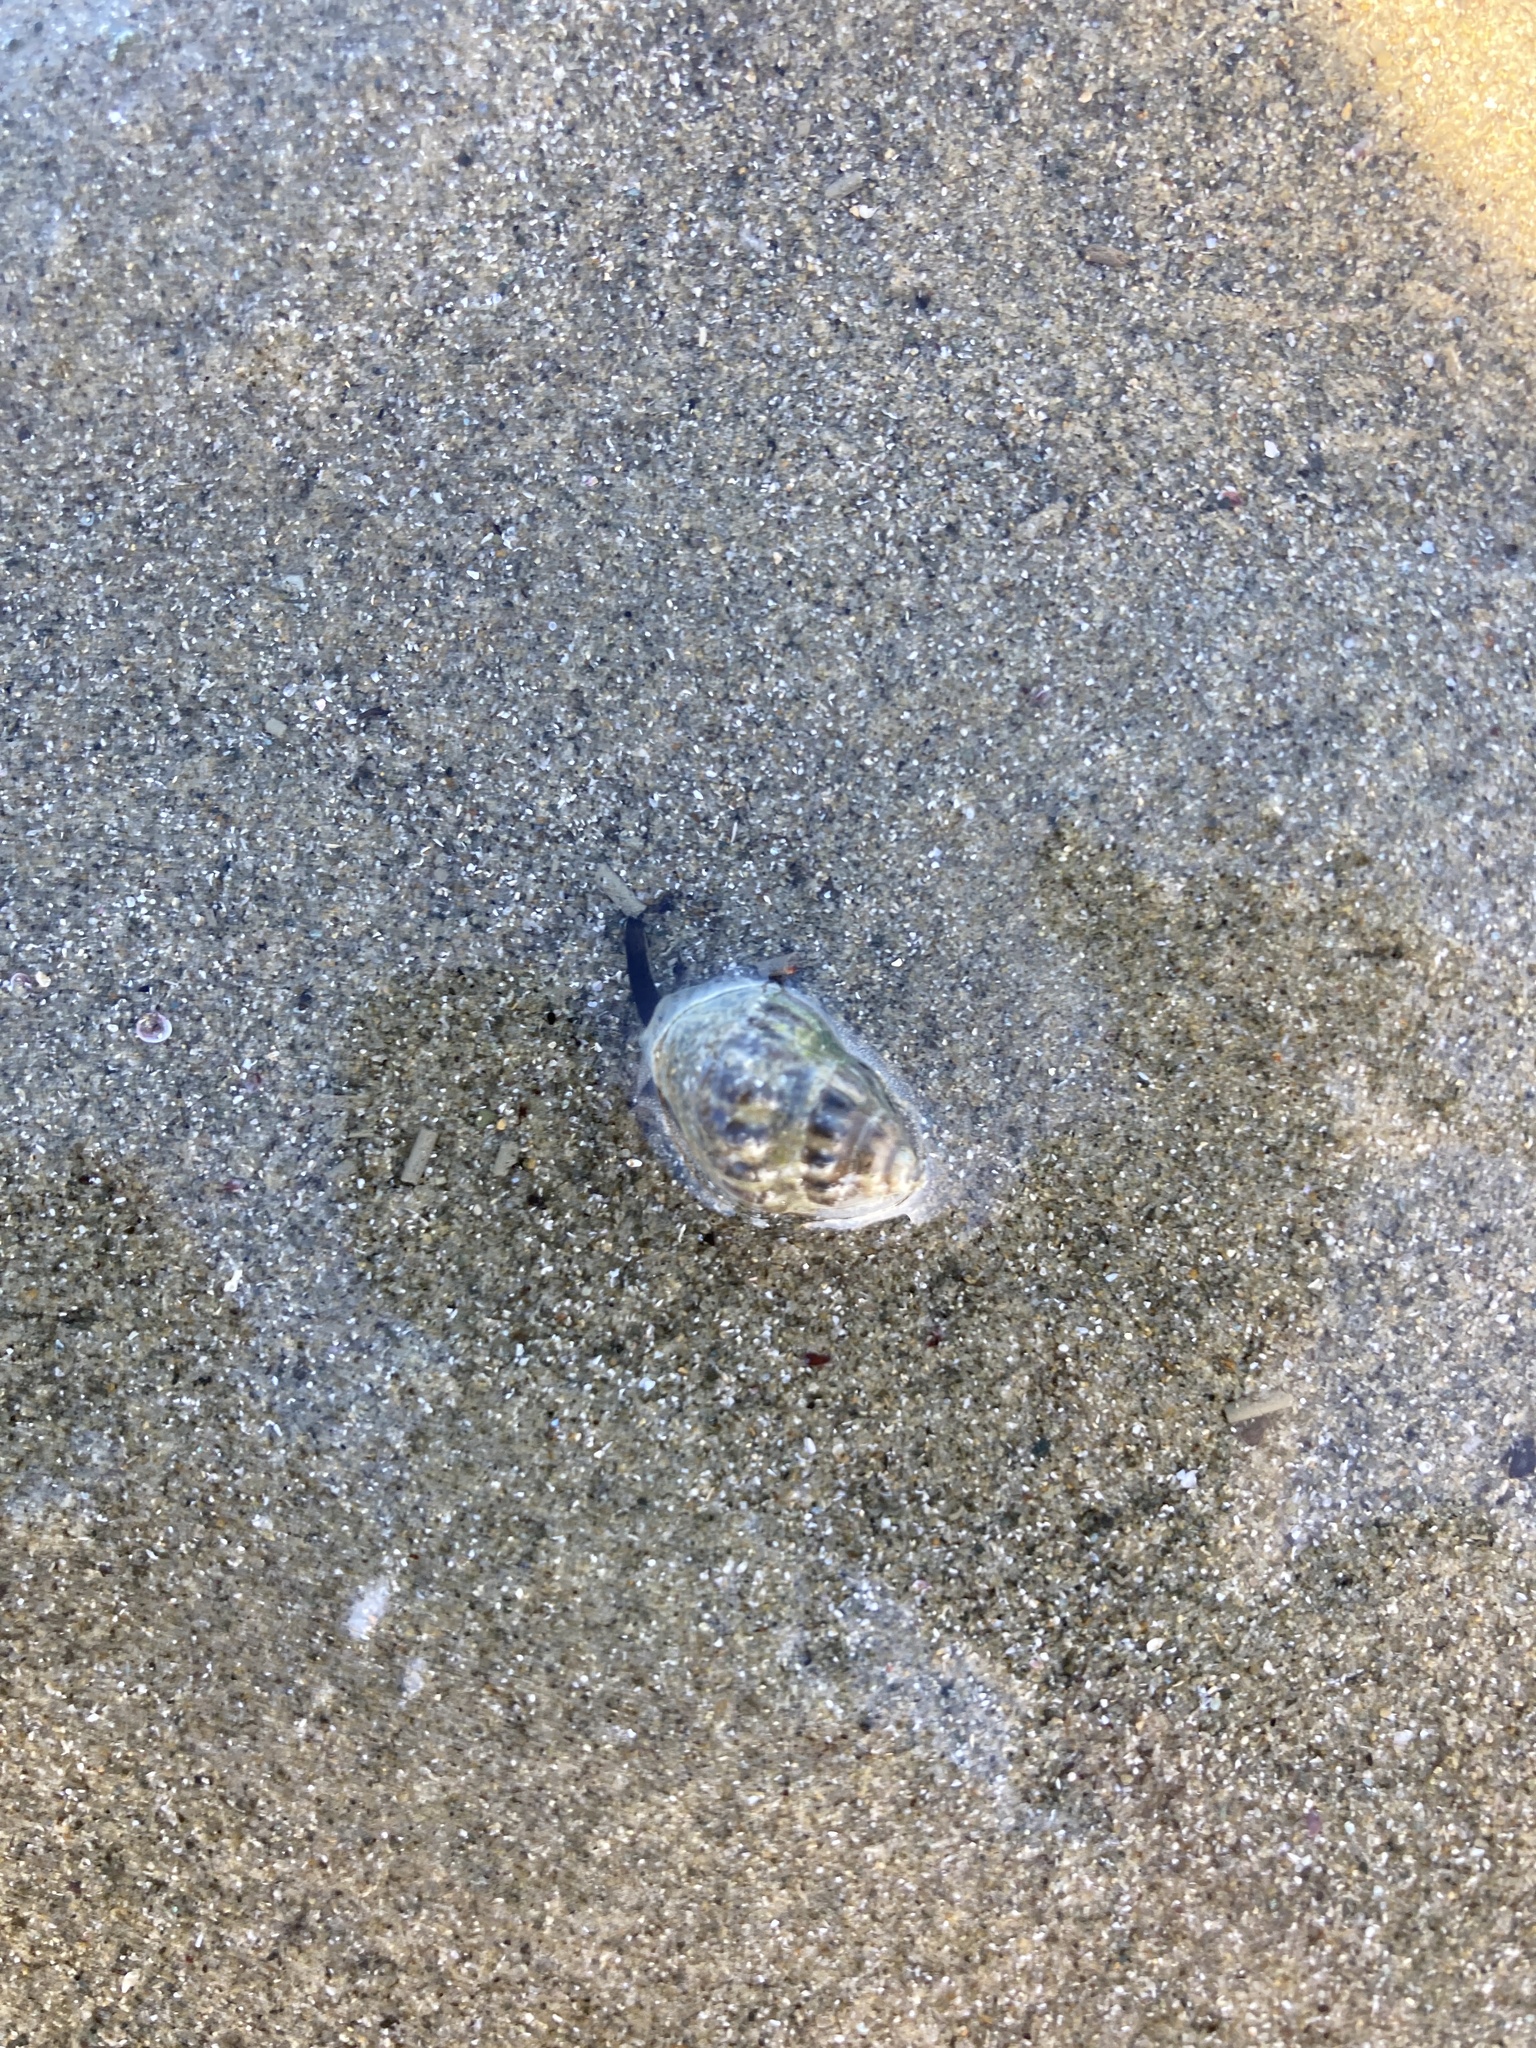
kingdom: Animalia
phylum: Mollusca
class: Gastropoda
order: Neogastropoda
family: Cominellidae
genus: Cominella
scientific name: Cominella glandiformis
